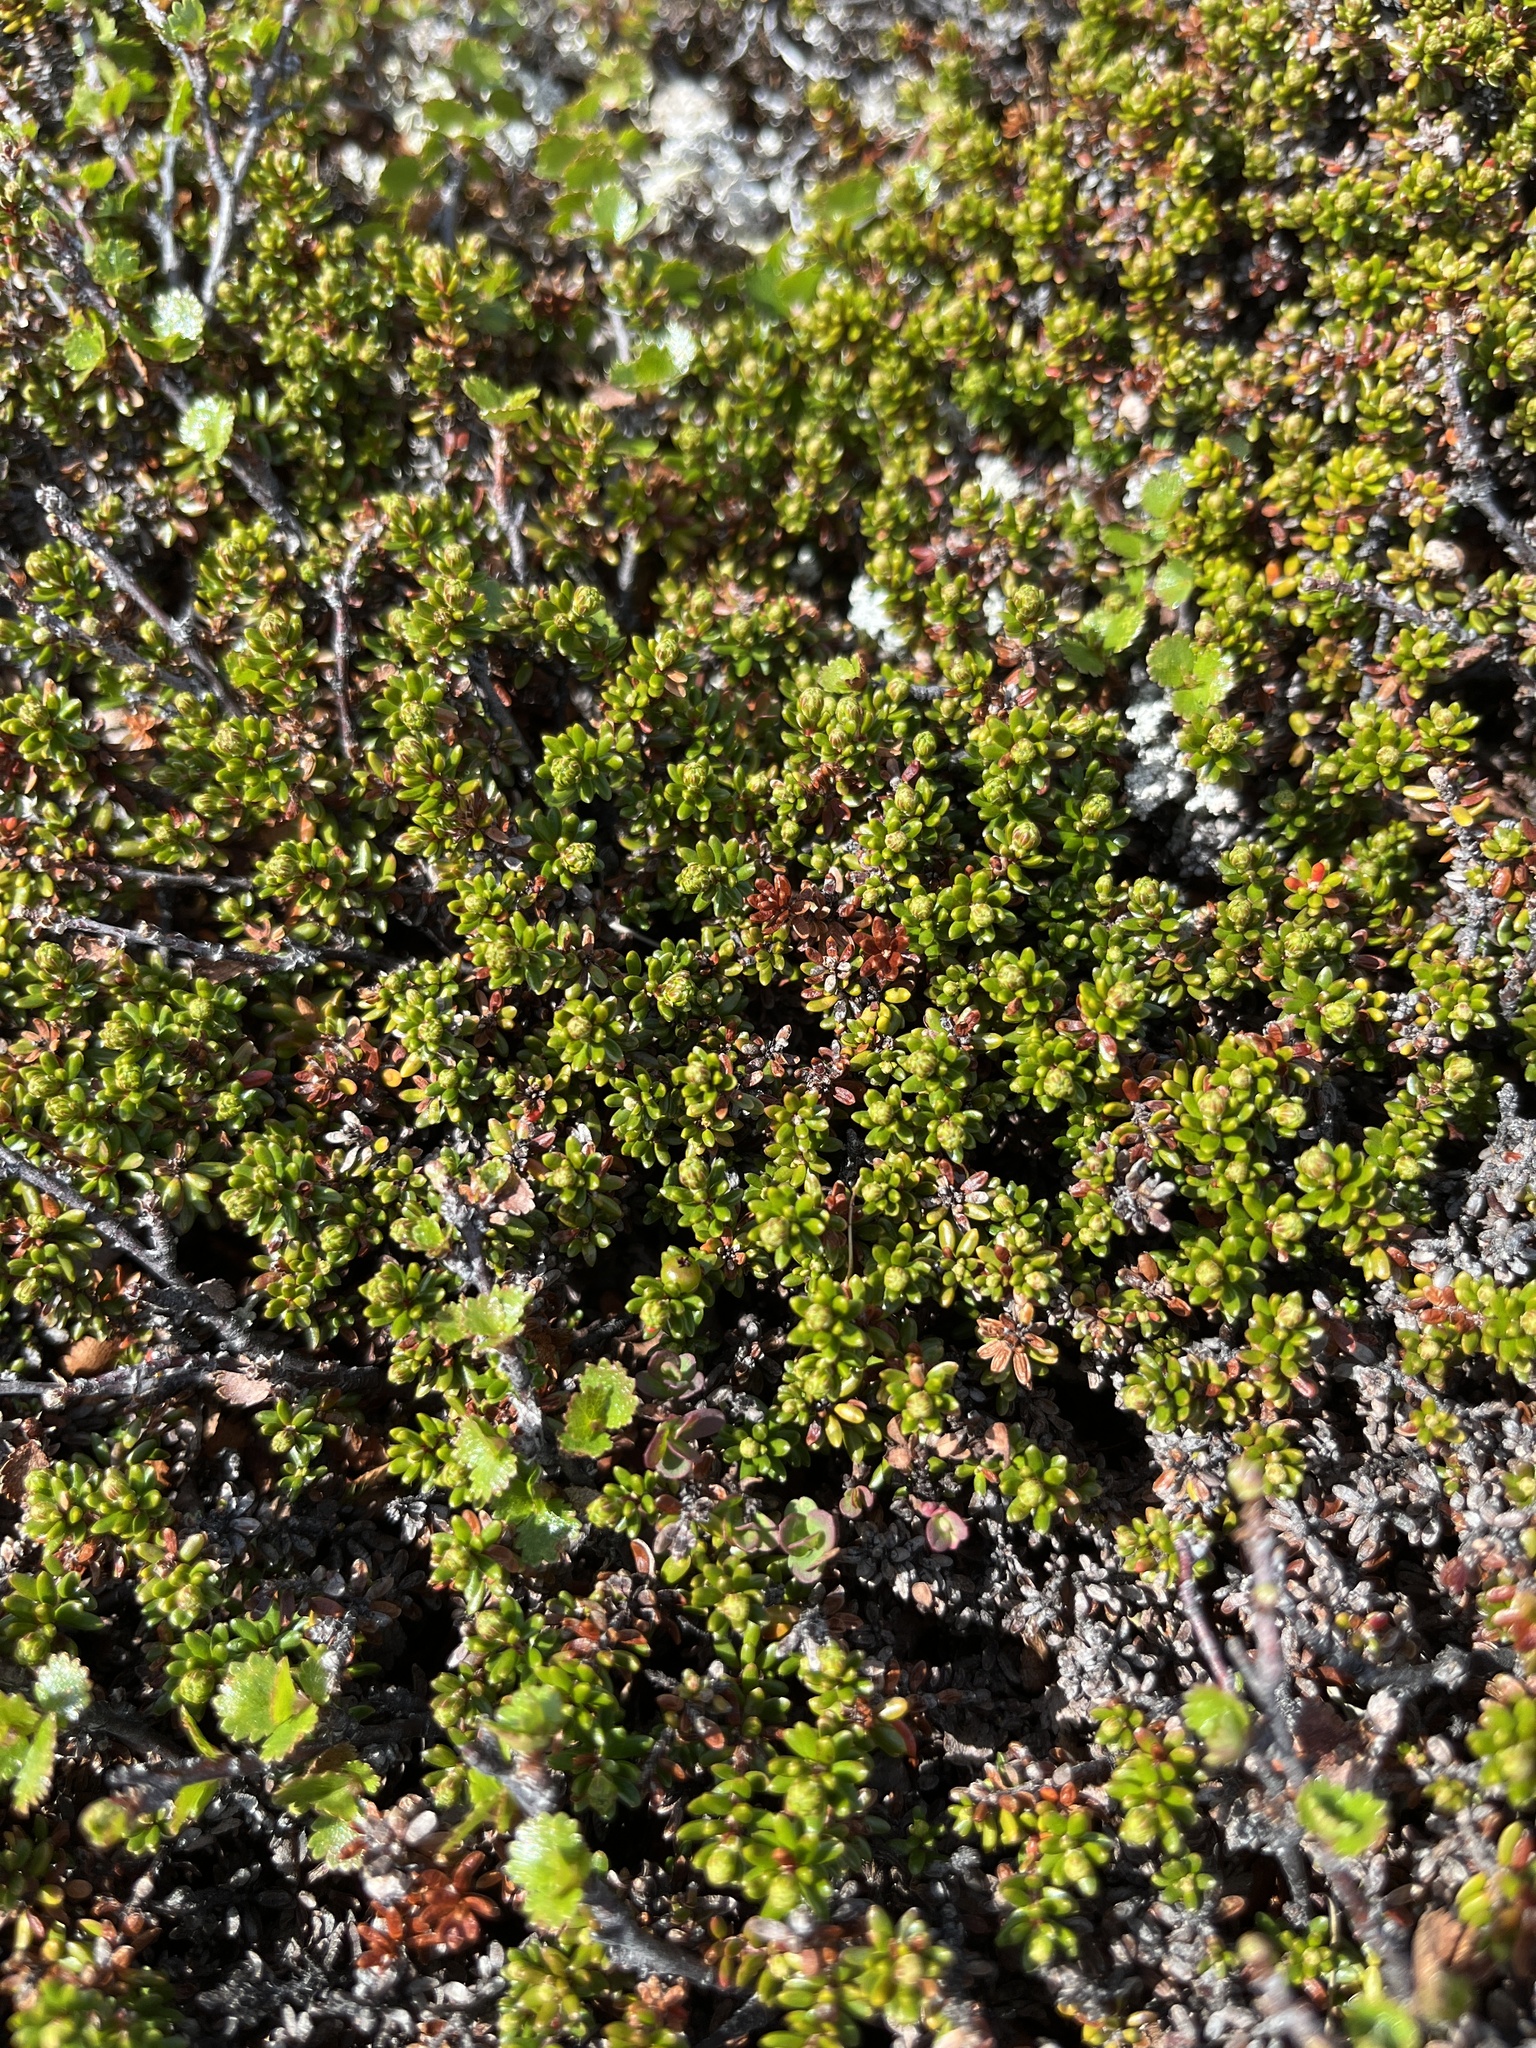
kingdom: Plantae
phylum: Tracheophyta
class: Magnoliopsida
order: Ericales
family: Ericaceae
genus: Empetrum
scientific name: Empetrum hermaphroditum
